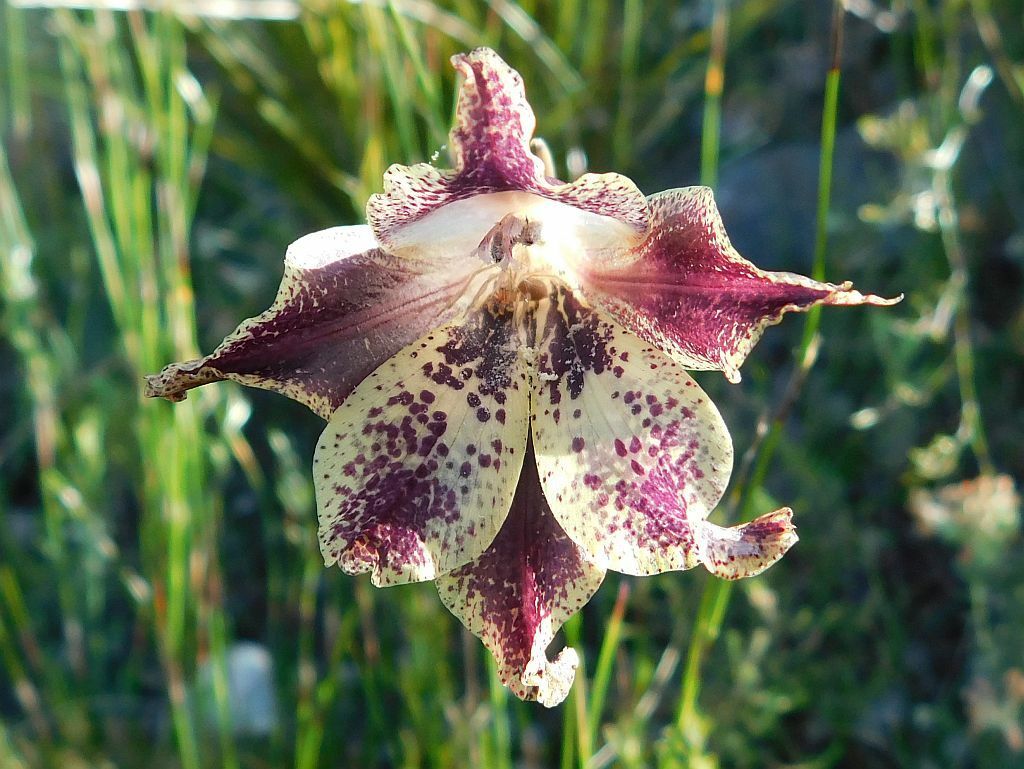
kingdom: Plantae
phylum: Tracheophyta
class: Liliopsida
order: Asparagales
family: Iridaceae
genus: Gladiolus
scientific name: Gladiolus maculatus
